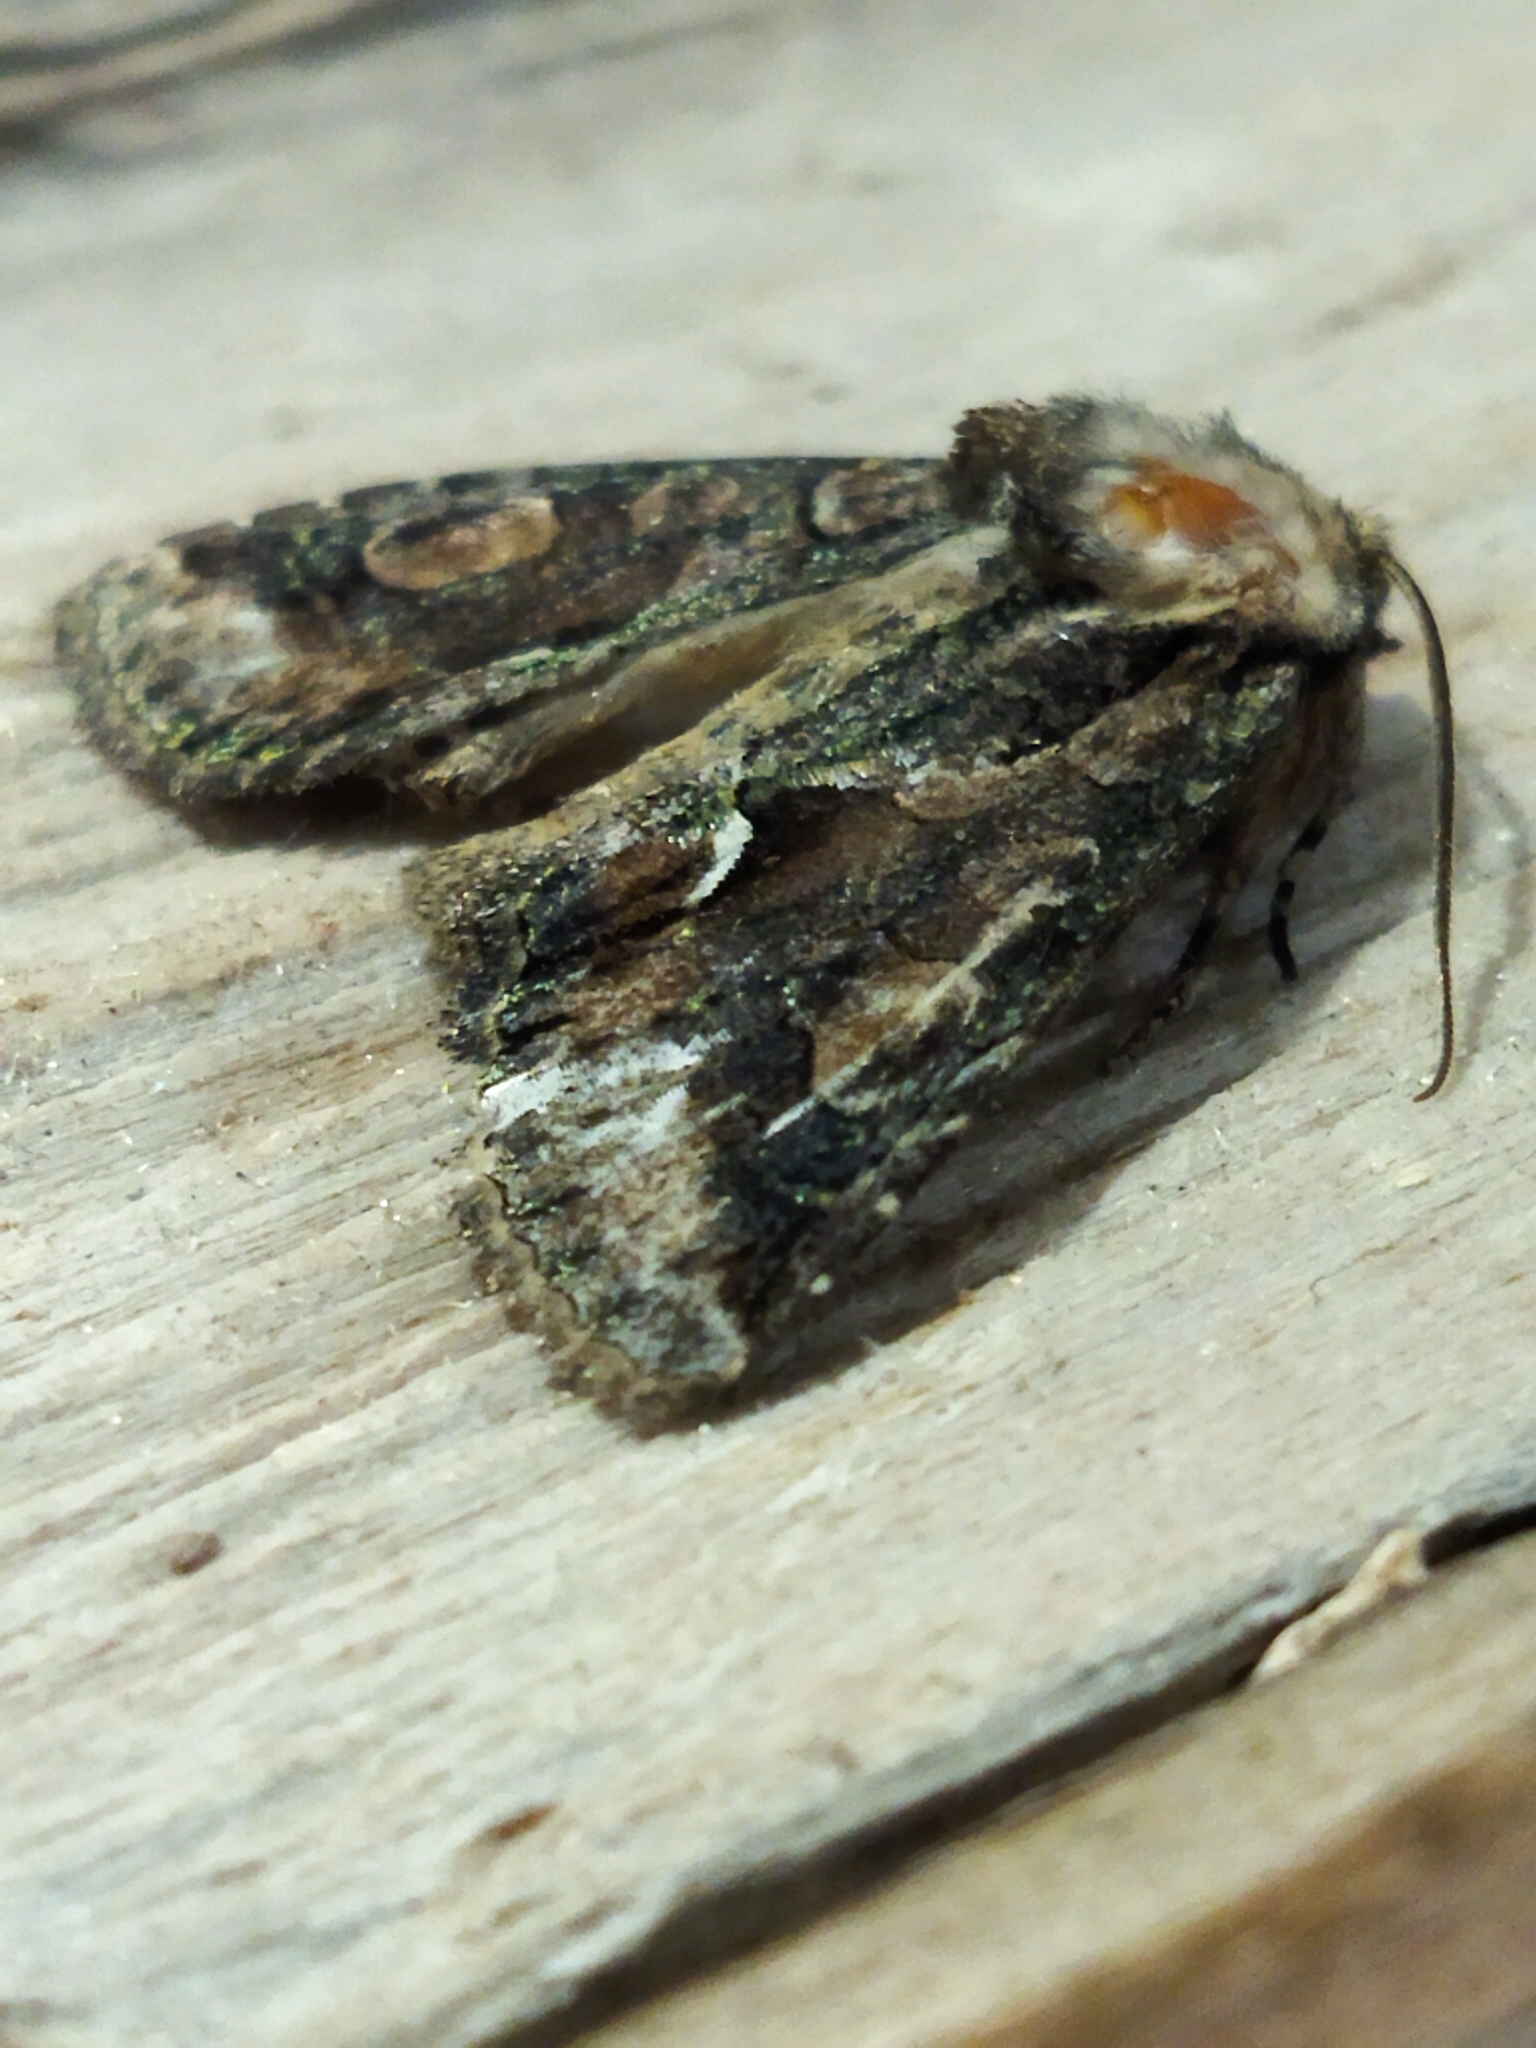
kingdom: Animalia
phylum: Arthropoda
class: Insecta
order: Lepidoptera
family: Noctuidae
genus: Allophyes
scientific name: Allophyes oxyacanthae
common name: Green-brindled crescent
